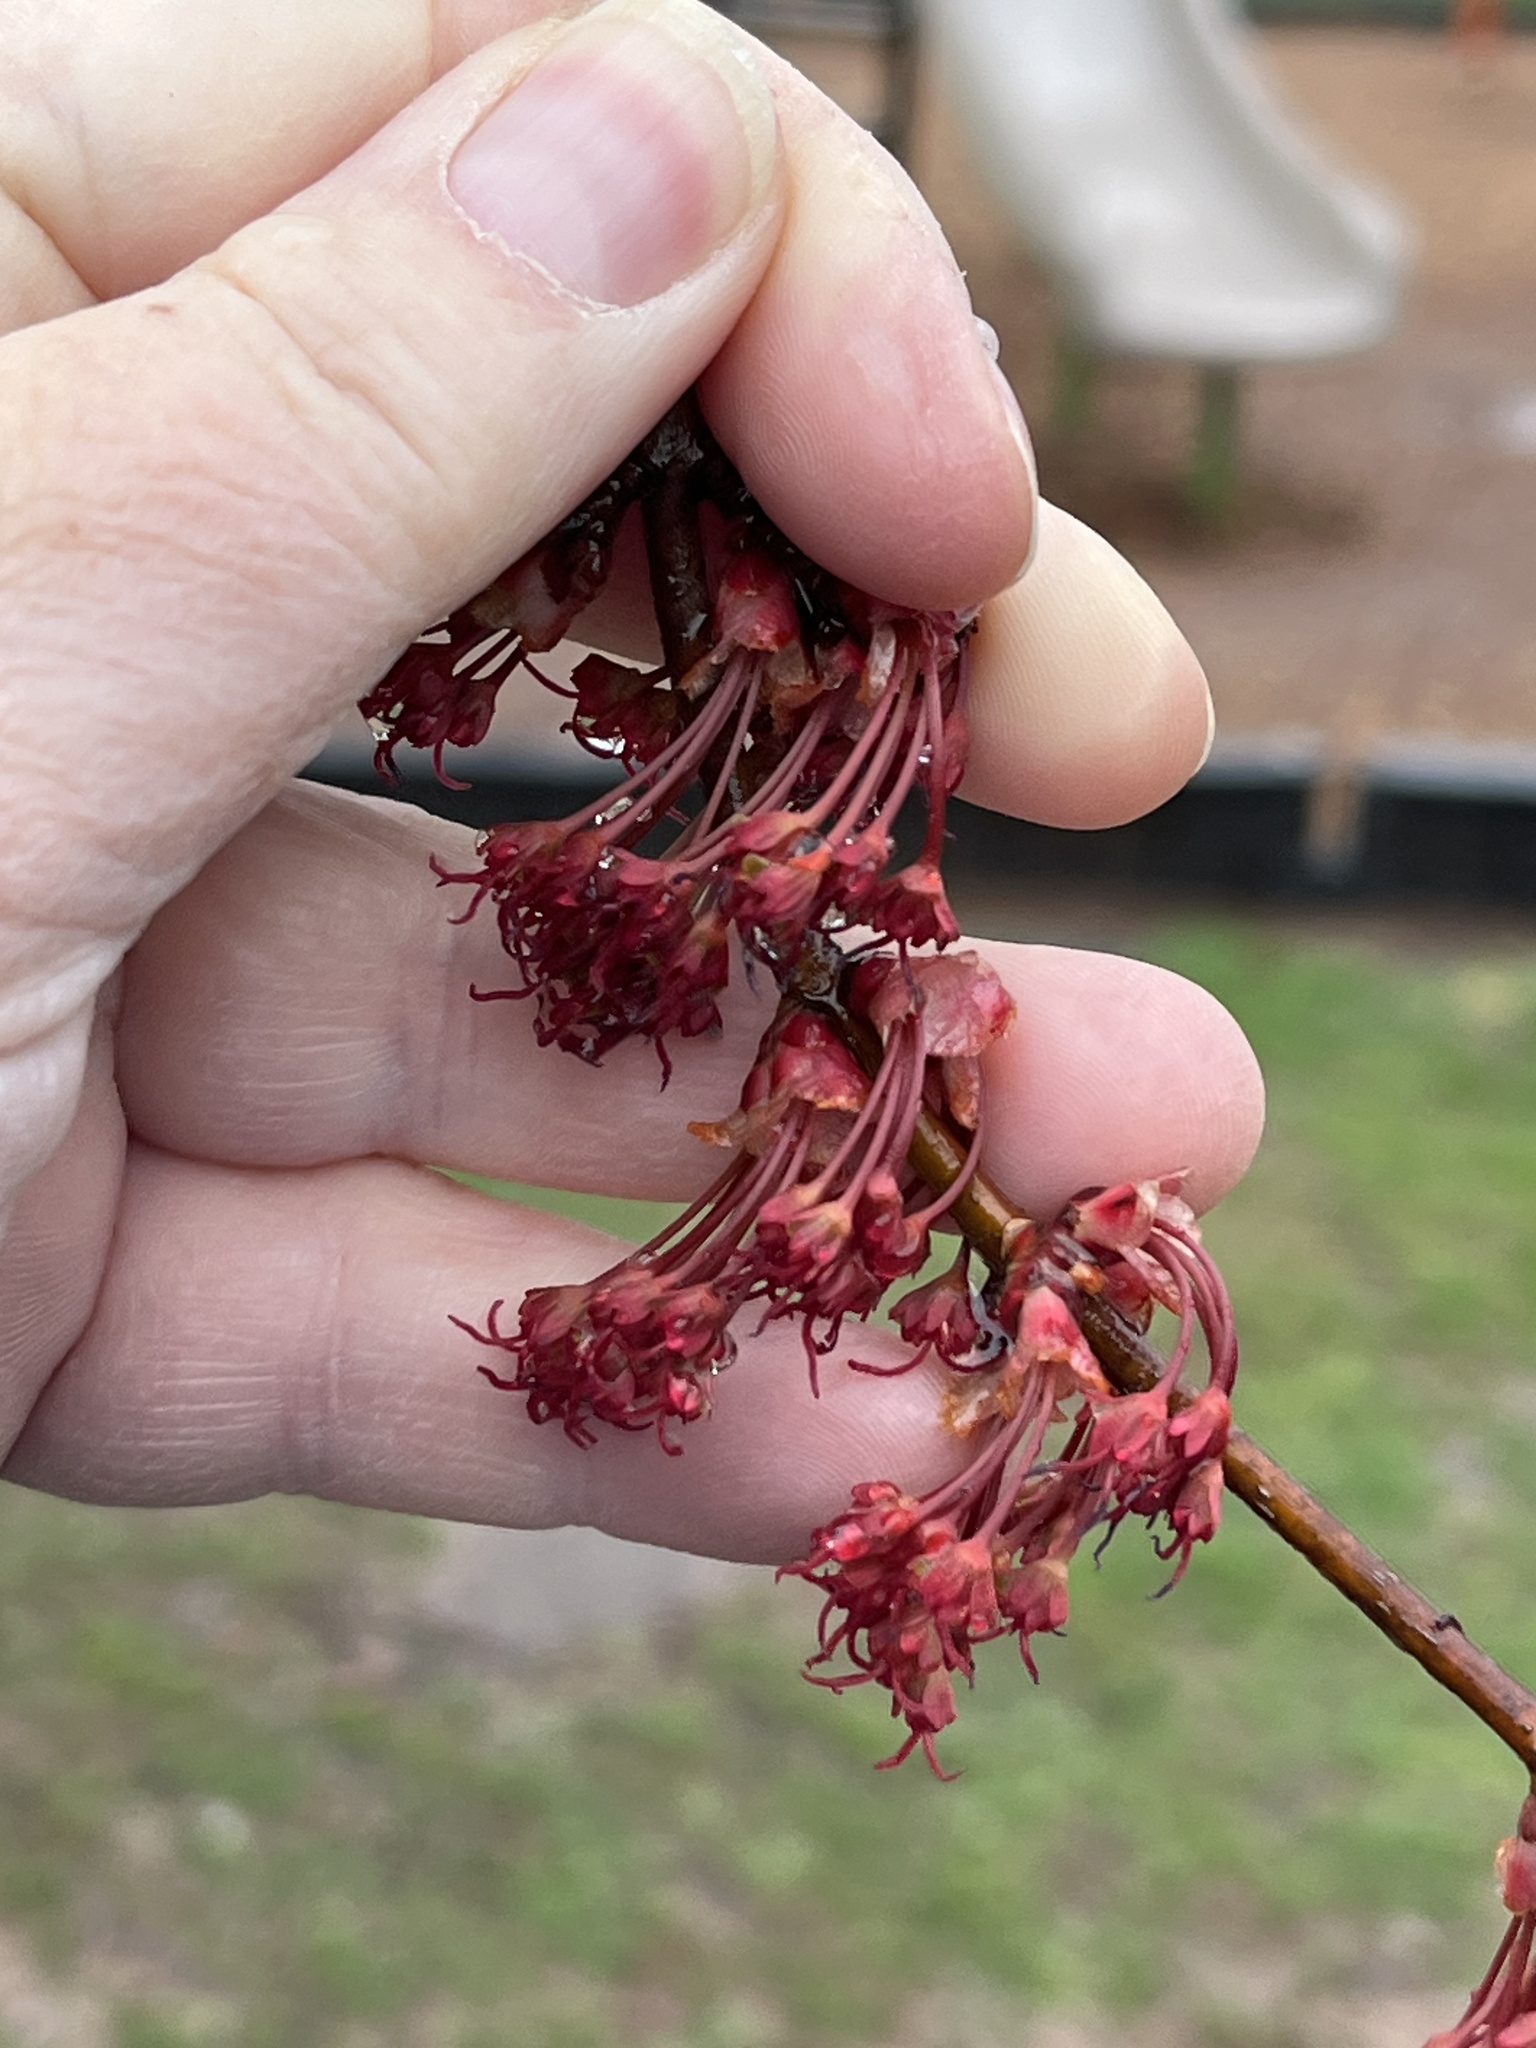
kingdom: Plantae
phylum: Tracheophyta
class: Magnoliopsida
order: Sapindales
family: Sapindaceae
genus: Acer
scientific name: Acer rubrum
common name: Red maple
